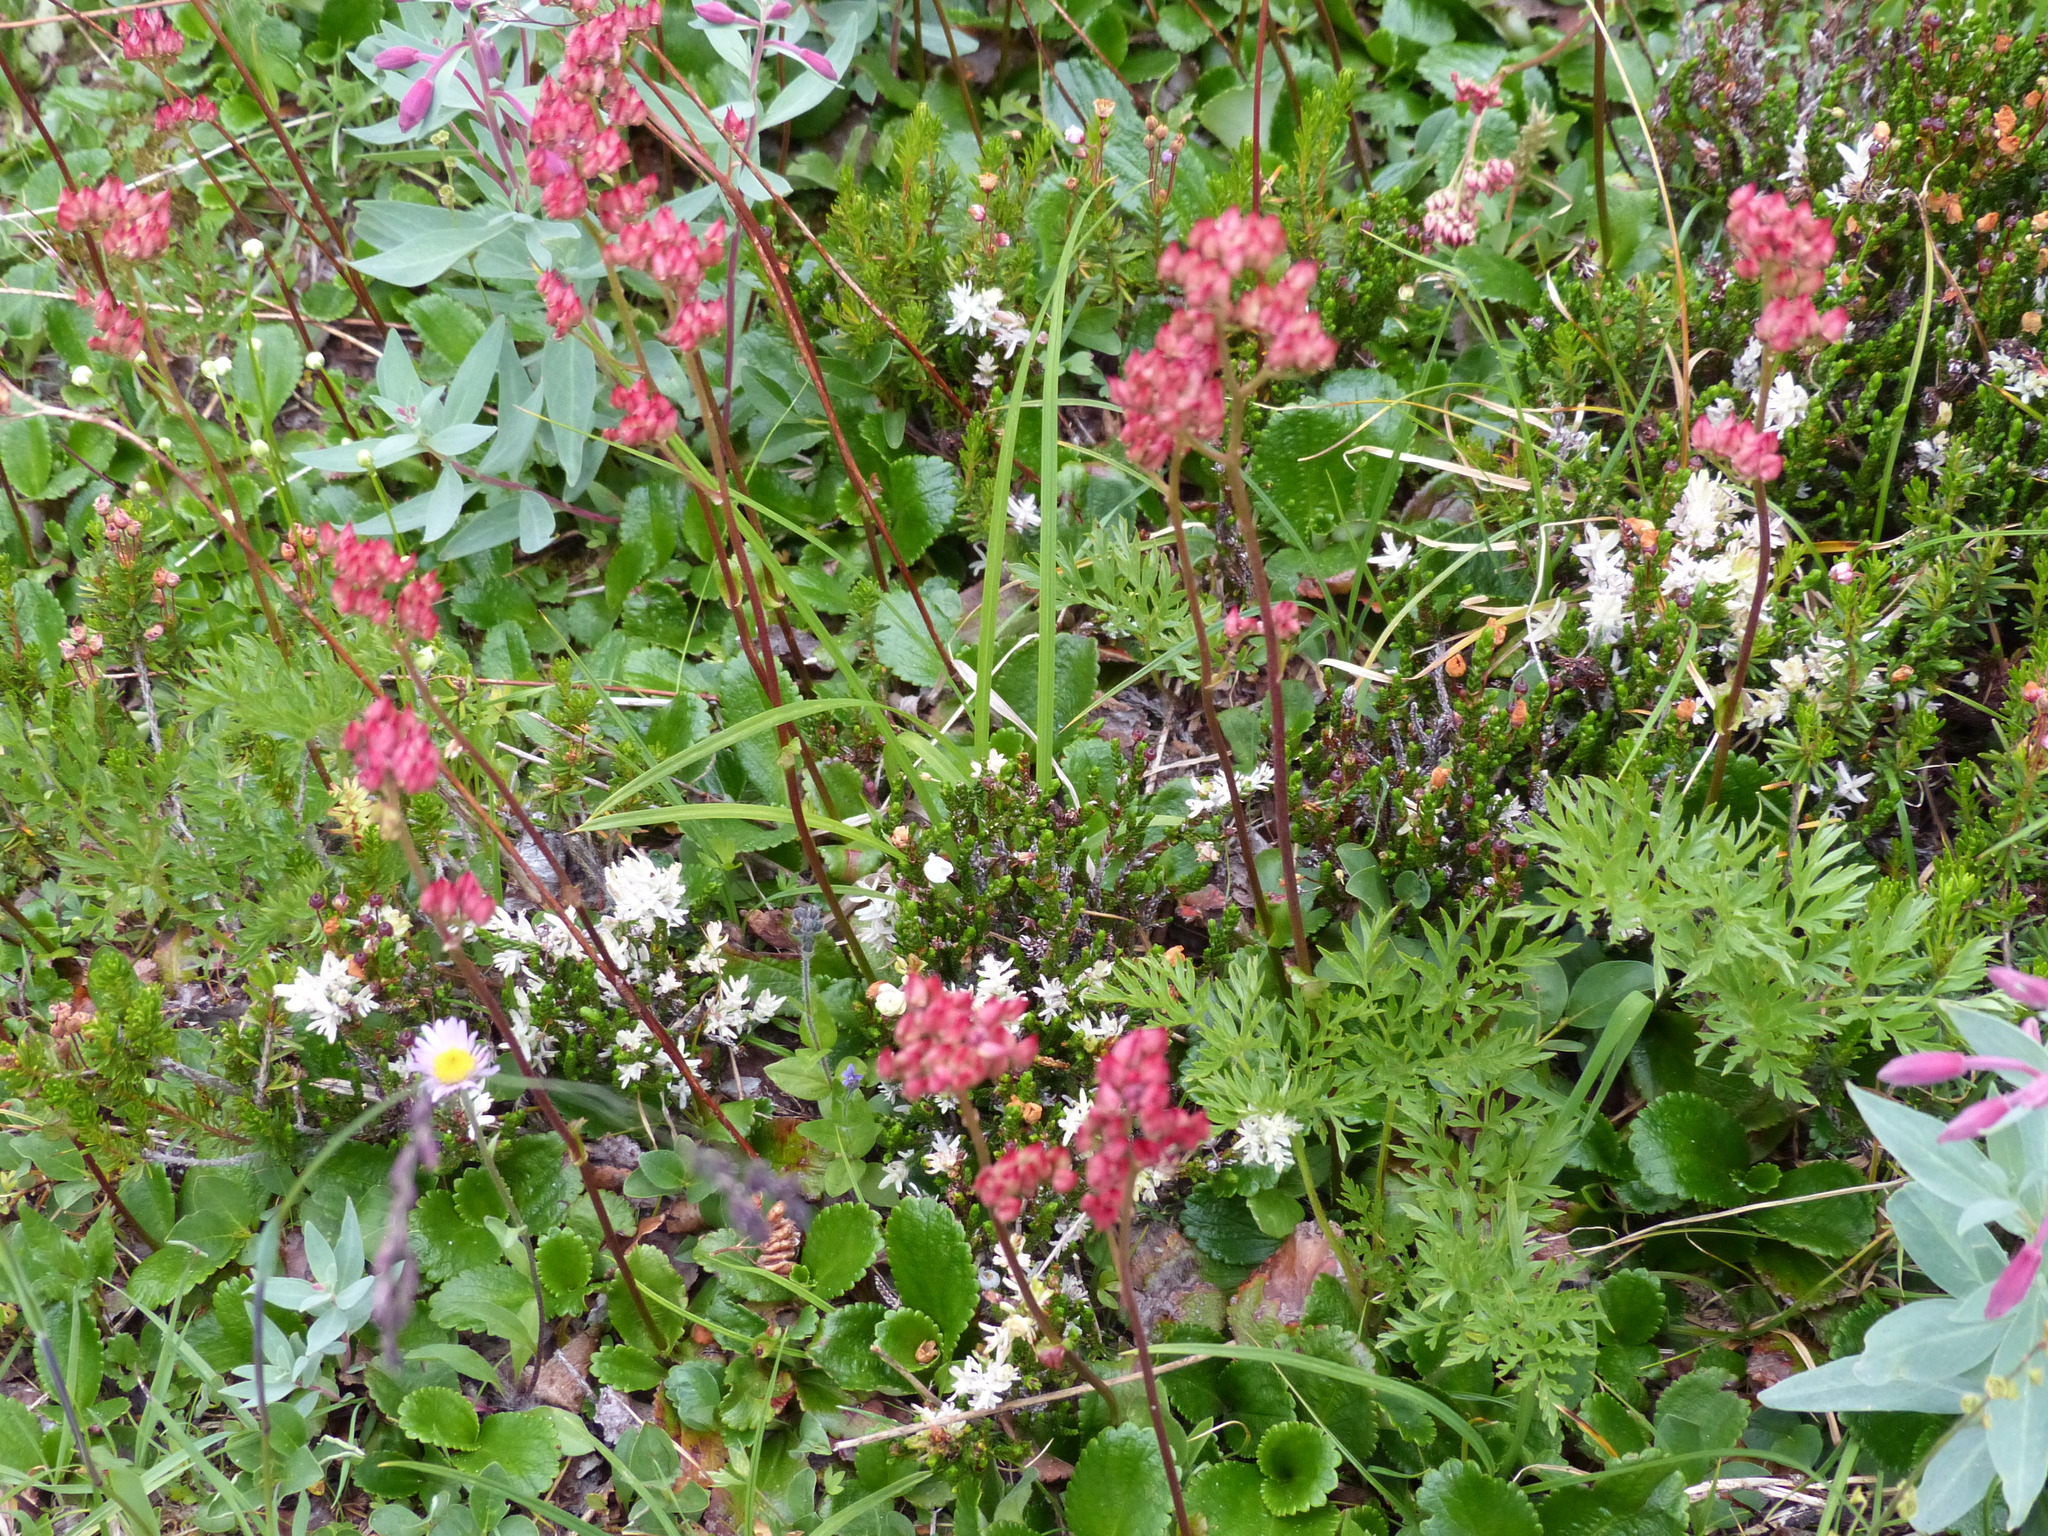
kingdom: Fungi
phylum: Basidiomycota
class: Exobasidiomycetes
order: Exobasidiales
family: Exobasidiaceae
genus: Exobasidium
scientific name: Exobasidium cassiopes
